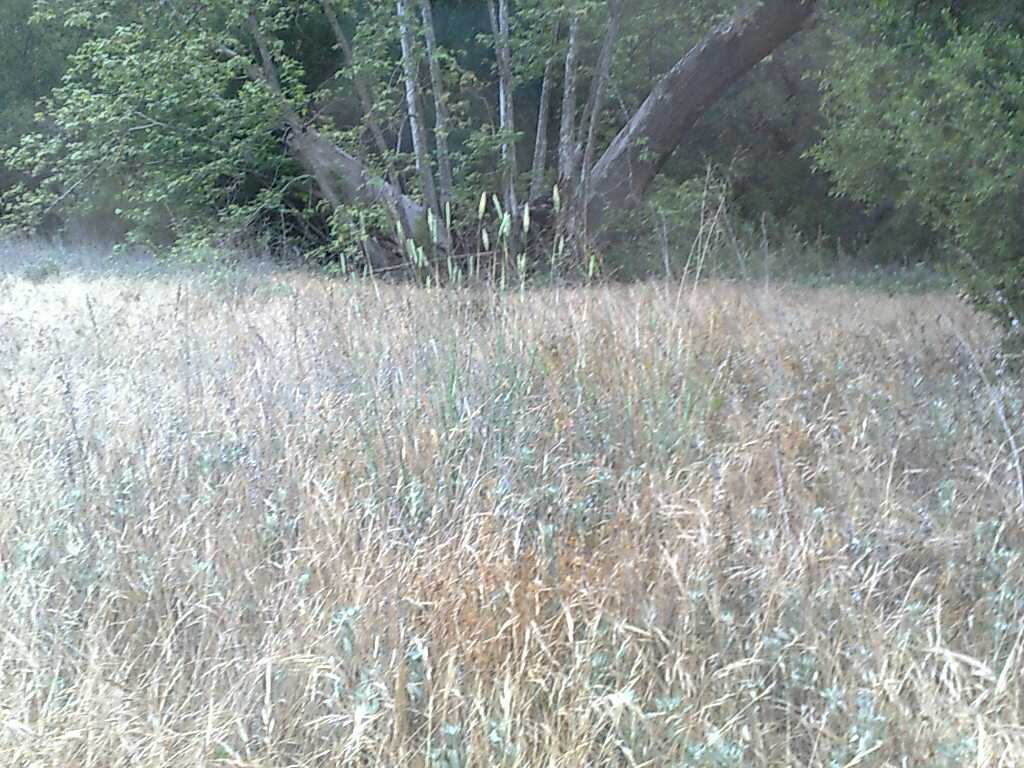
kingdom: Plantae
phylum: Tracheophyta
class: Liliopsida
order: Poales
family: Poaceae
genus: Phalaris
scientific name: Phalaris aquatica
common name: Bulbous canary-grass
